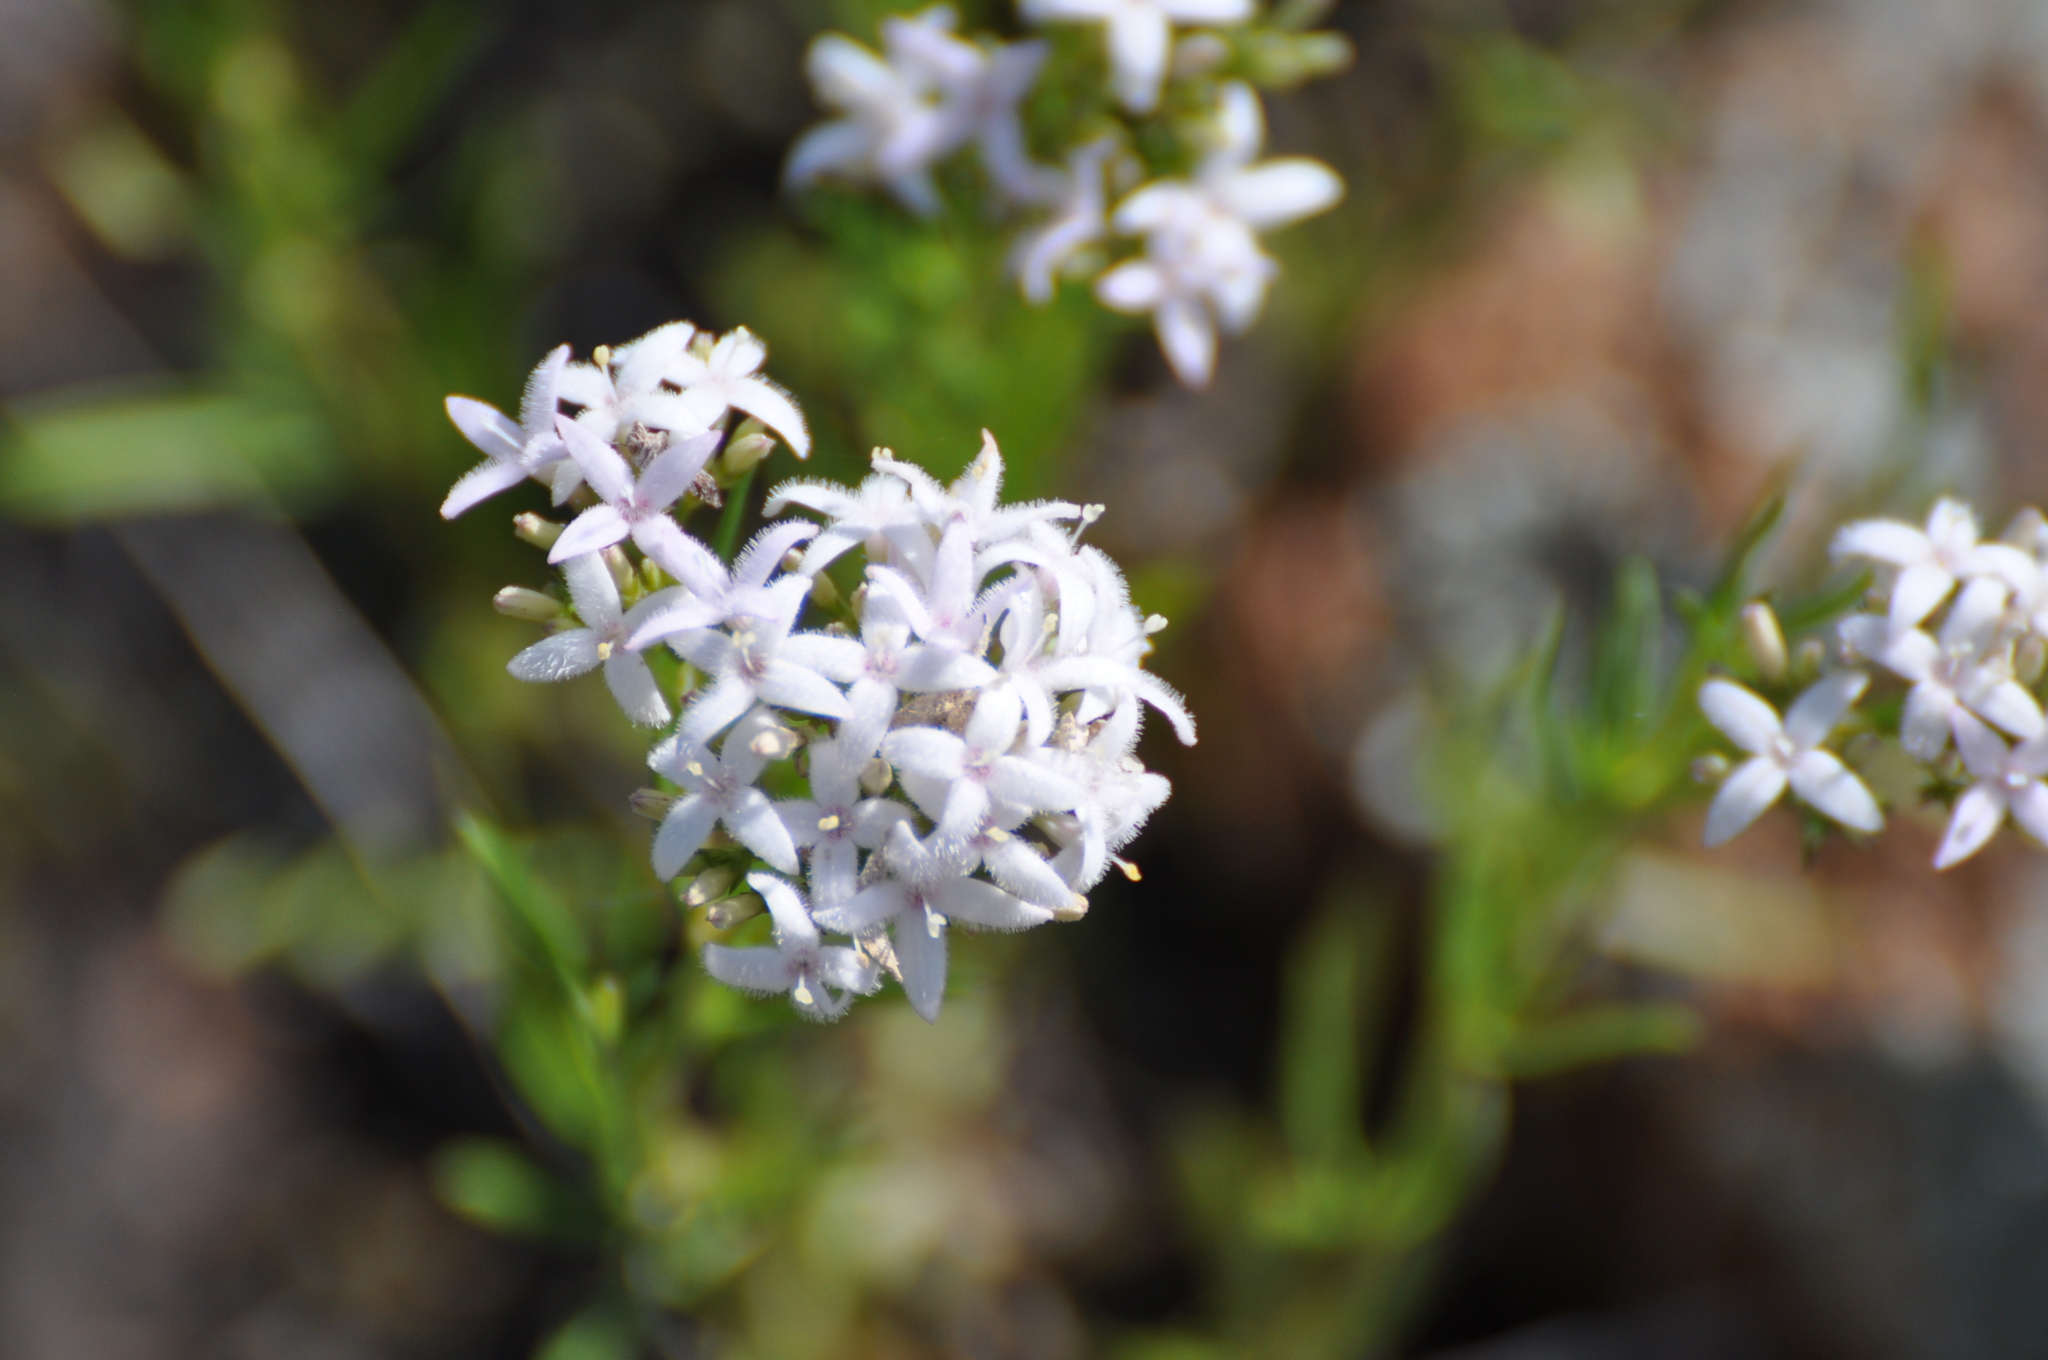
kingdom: Plantae
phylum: Tracheophyta
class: Magnoliopsida
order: Gentianales
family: Rubiaceae
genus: Stenaria
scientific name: Stenaria nigricans
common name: Diamondflowers
